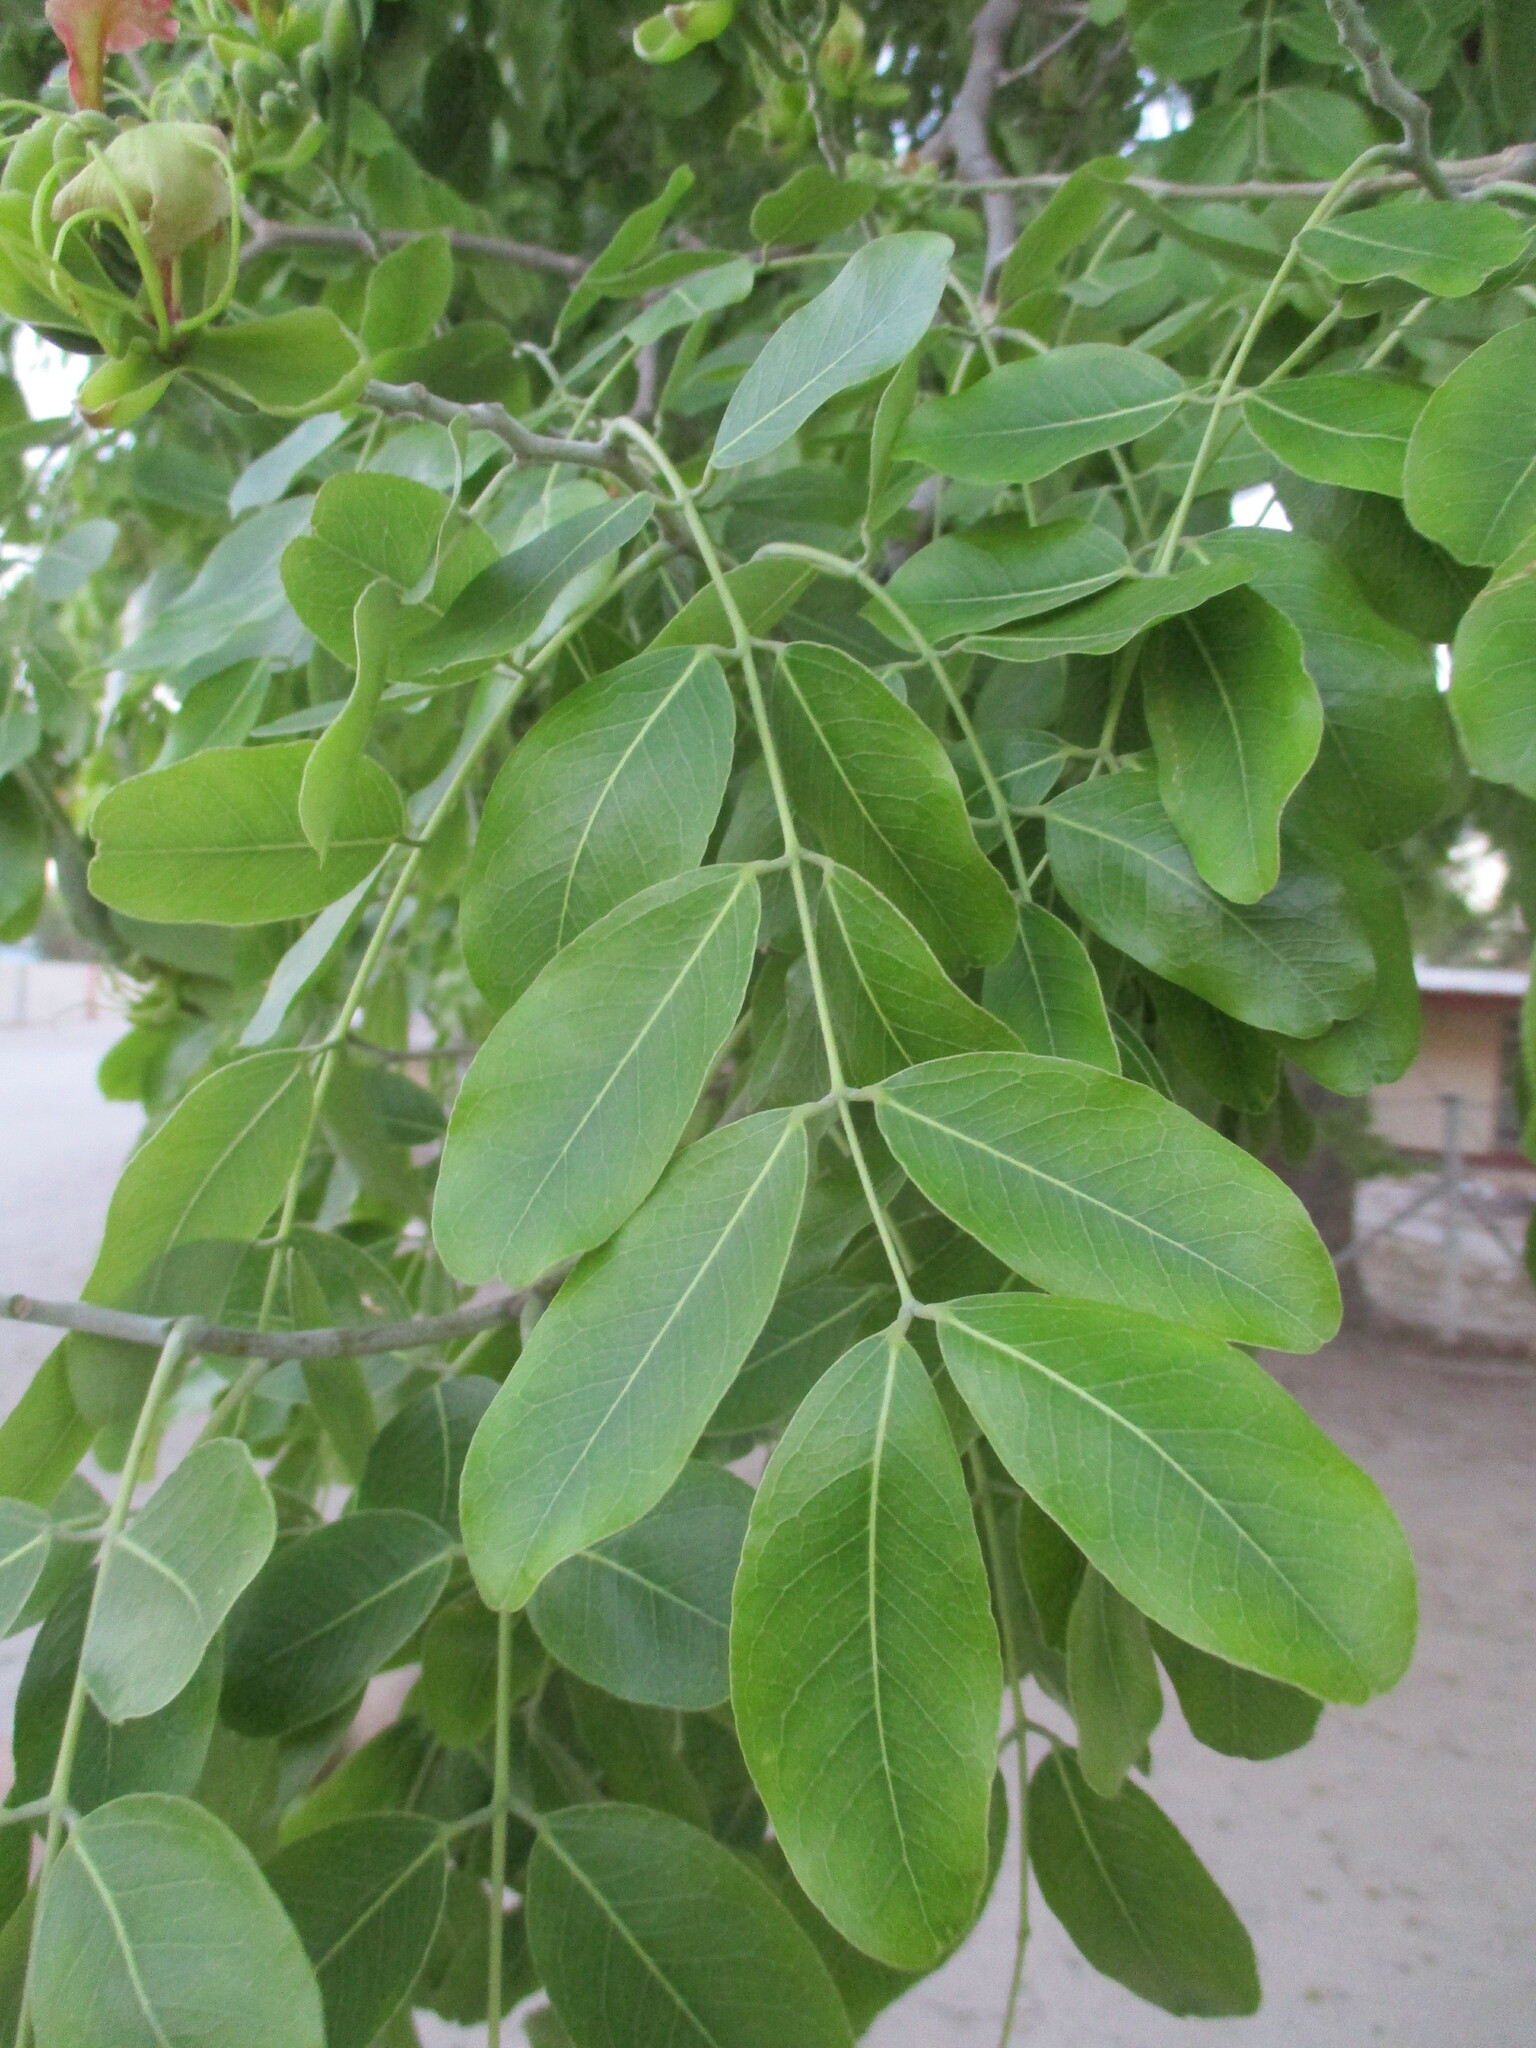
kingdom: Plantae
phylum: Tracheophyta
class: Magnoliopsida
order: Fabales
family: Fabaceae
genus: Afzelia
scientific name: Afzelia quanzensis
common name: Pod mahogany
